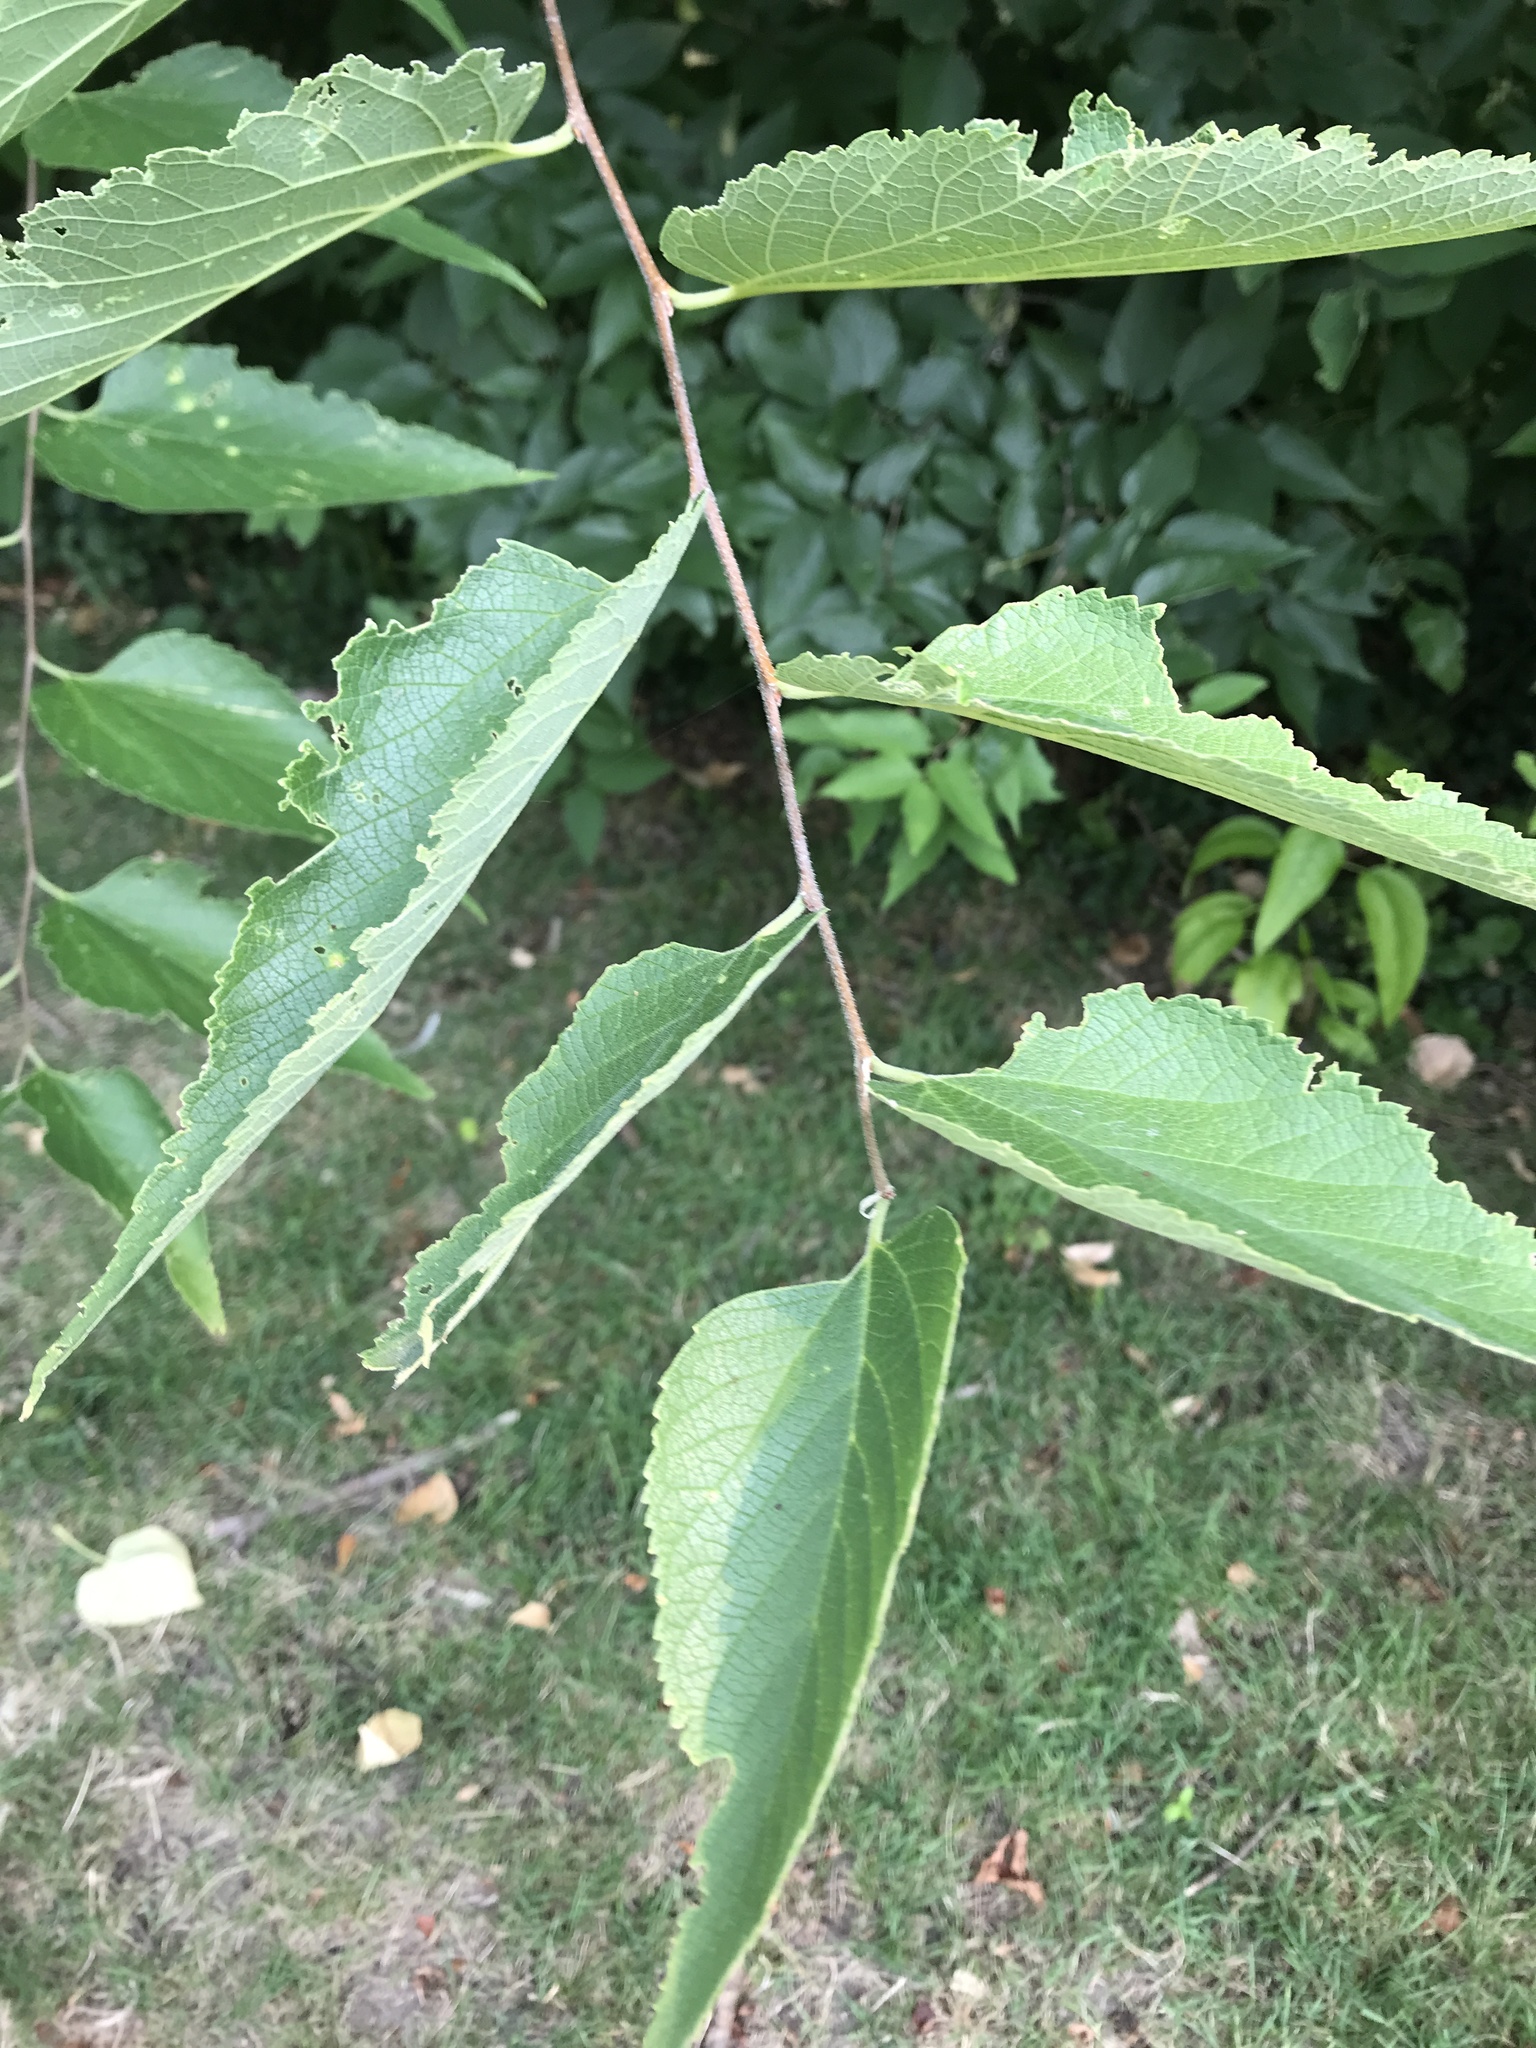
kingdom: Plantae
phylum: Tracheophyta
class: Magnoliopsida
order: Rosales
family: Cannabaceae
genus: Celtis
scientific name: Celtis reticulata
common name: Netleaf hackberry
